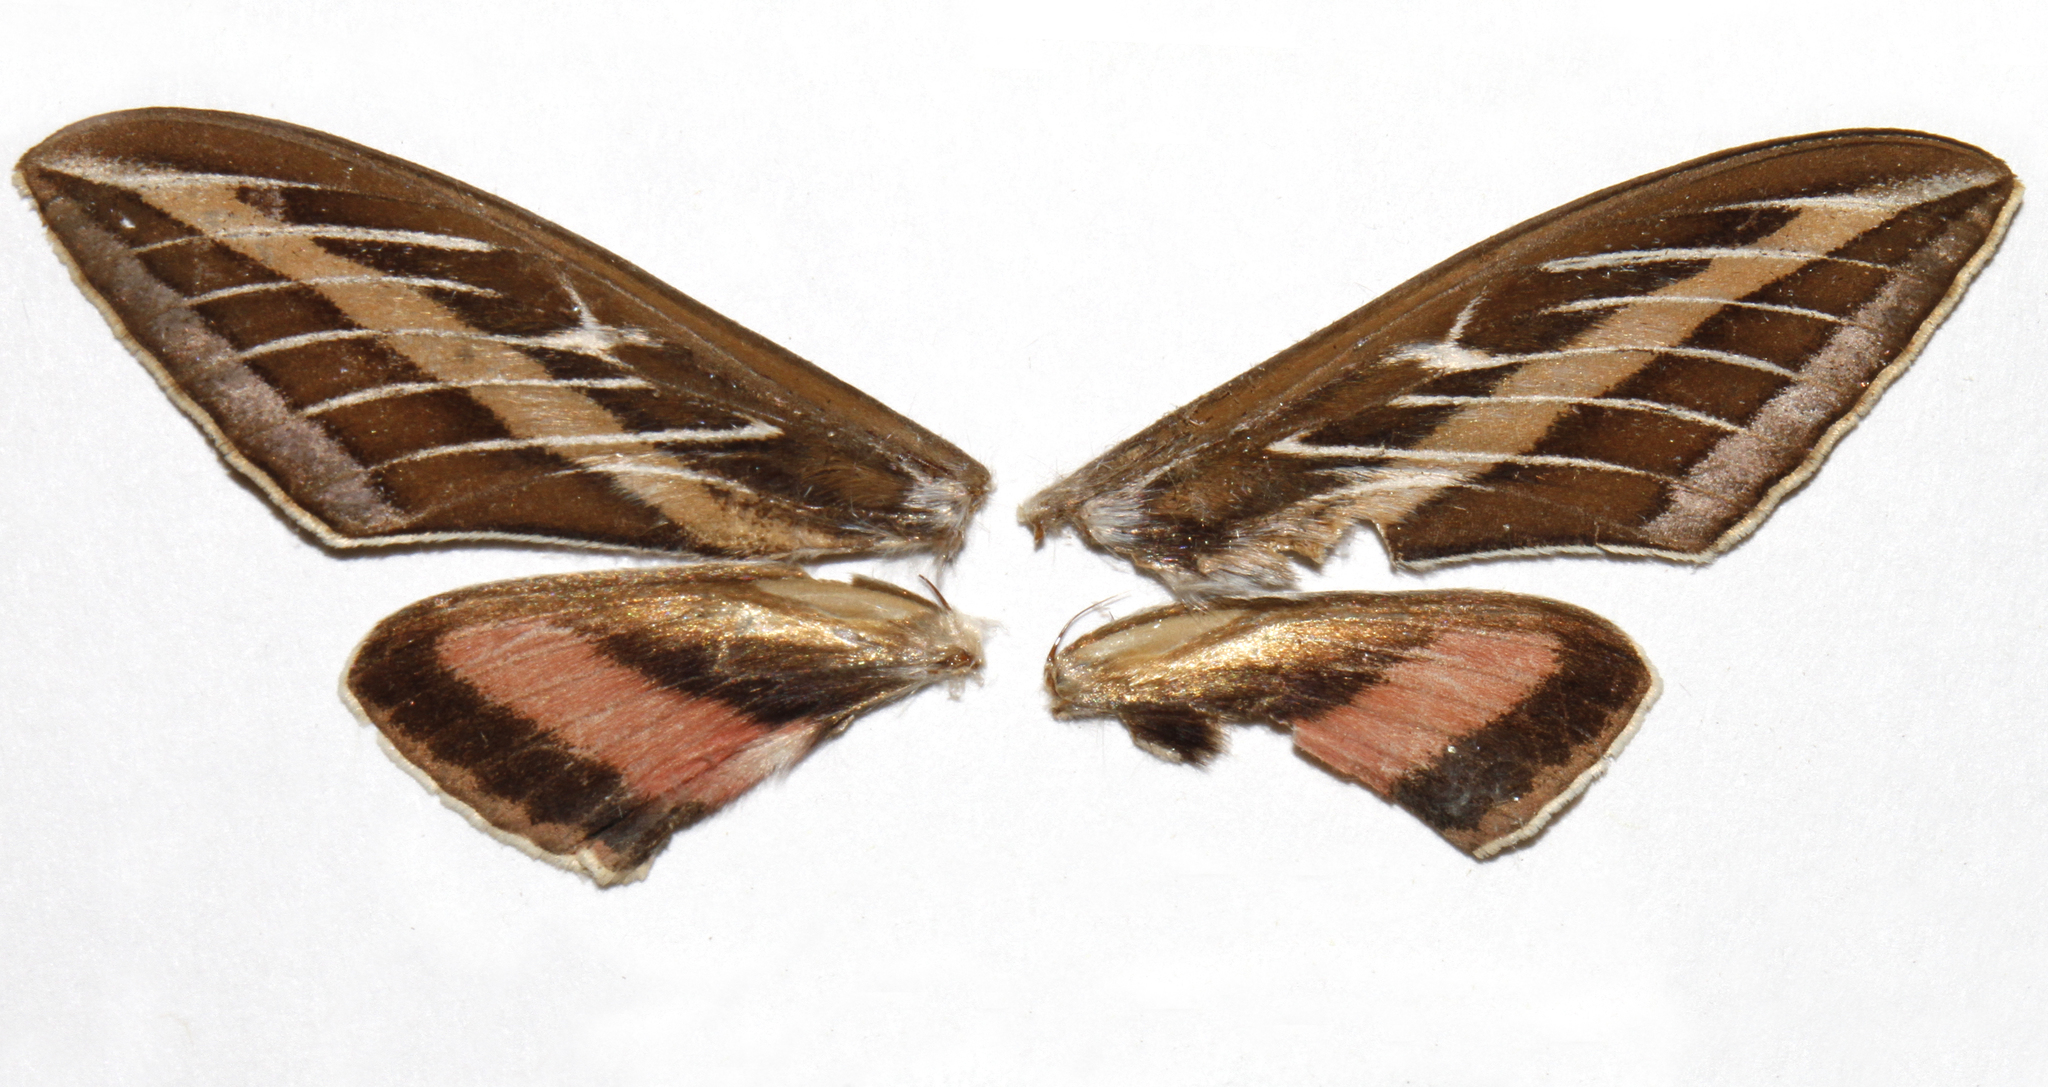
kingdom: Animalia
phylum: Arthropoda
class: Insecta
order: Lepidoptera
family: Sphingidae
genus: Hyles
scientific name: Hyles lineata
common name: White-lined sphinx
